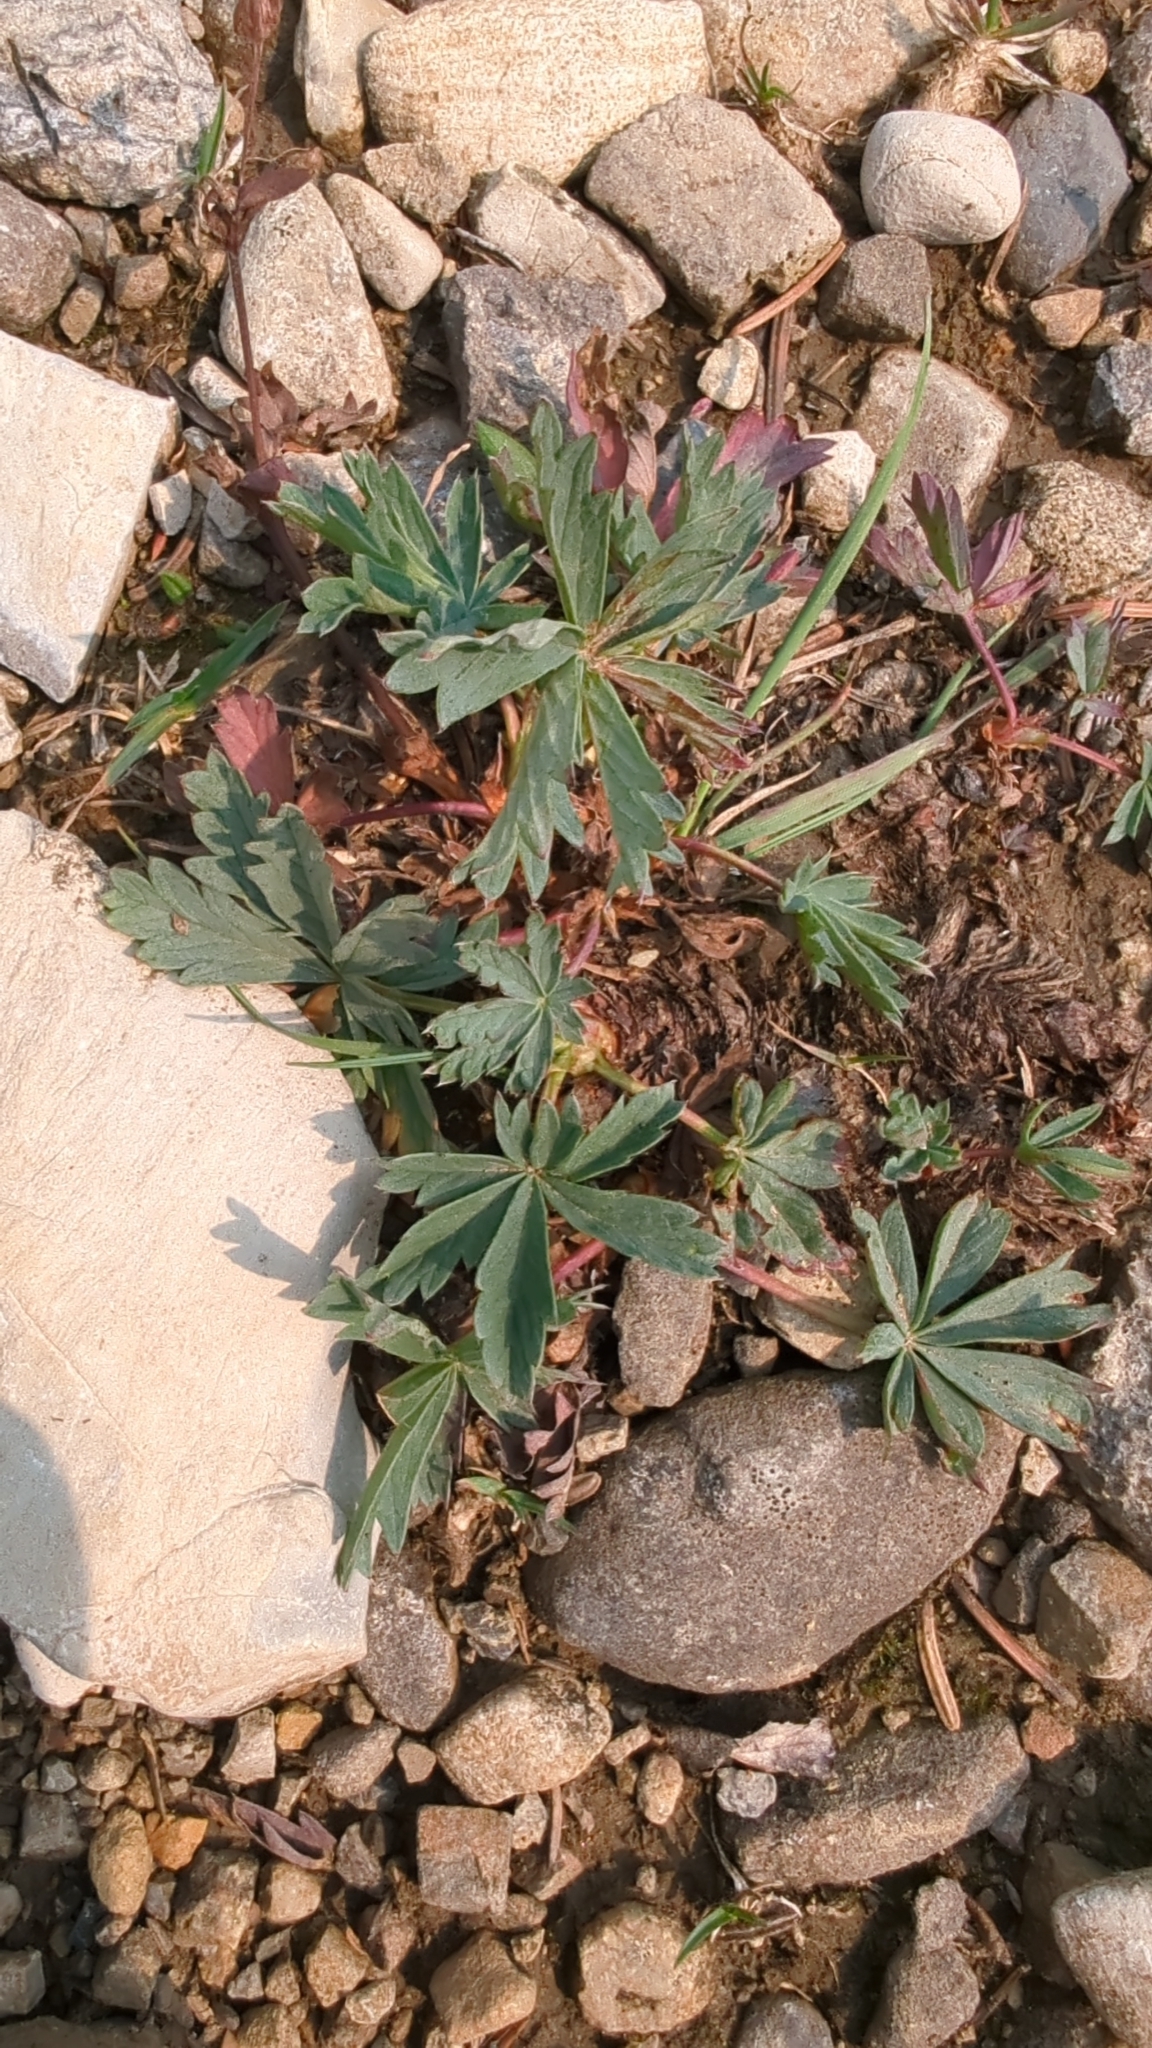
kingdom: Plantae
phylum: Tracheophyta
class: Magnoliopsida
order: Rosales
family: Rosaceae
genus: Potentilla
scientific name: Potentilla glaucophylla
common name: Blue-leaved cinquefoil
